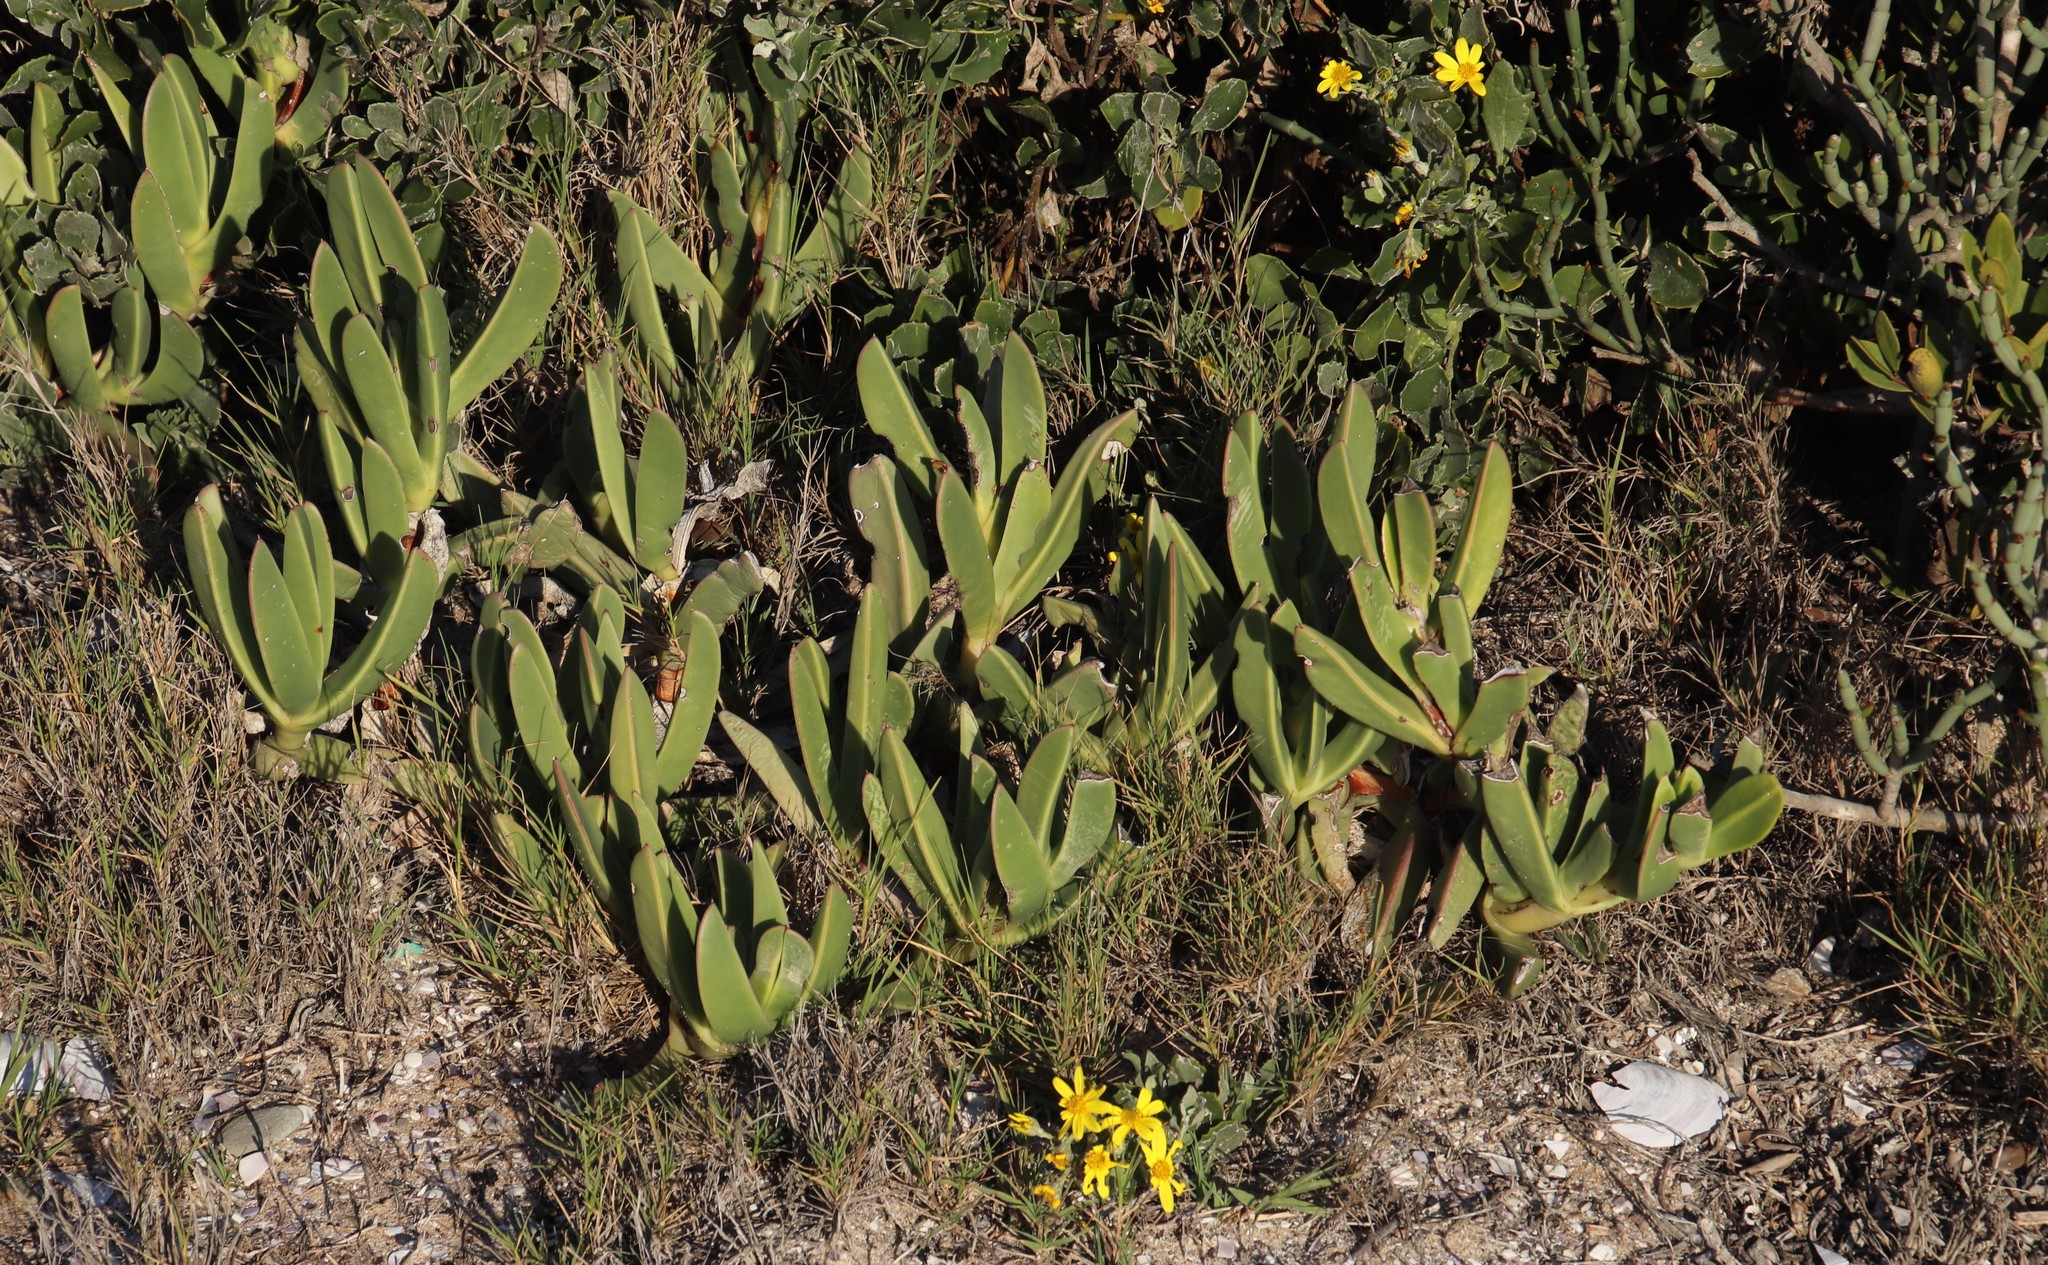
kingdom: Plantae
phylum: Tracheophyta
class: Magnoliopsida
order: Caryophyllales
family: Aizoaceae
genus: Carpobrotus
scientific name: Carpobrotus quadrifidus
